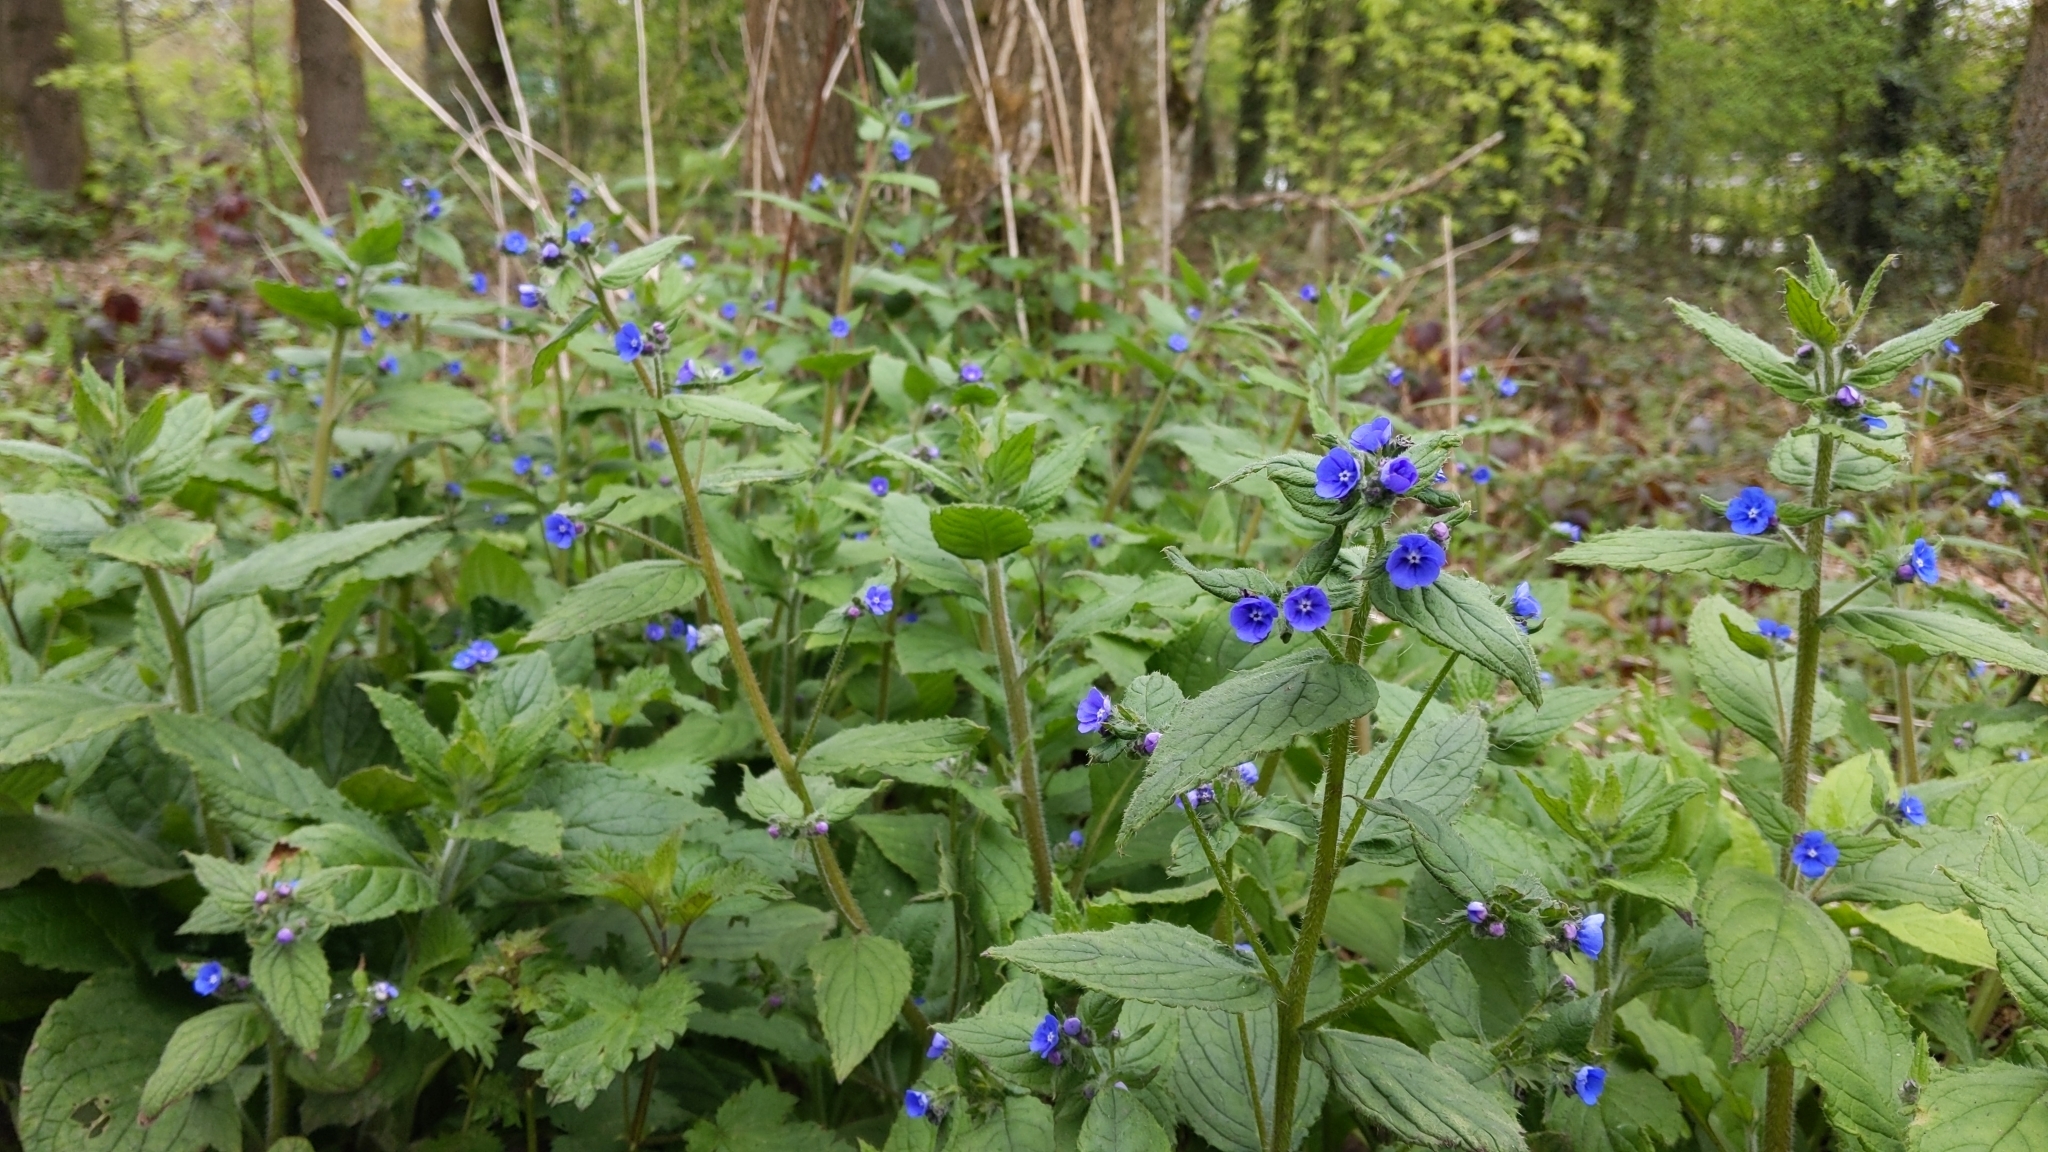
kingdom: Plantae
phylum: Tracheophyta
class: Magnoliopsida
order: Boraginales
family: Boraginaceae
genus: Pentaglottis
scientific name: Pentaglottis sempervirens
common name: Green alkanet
